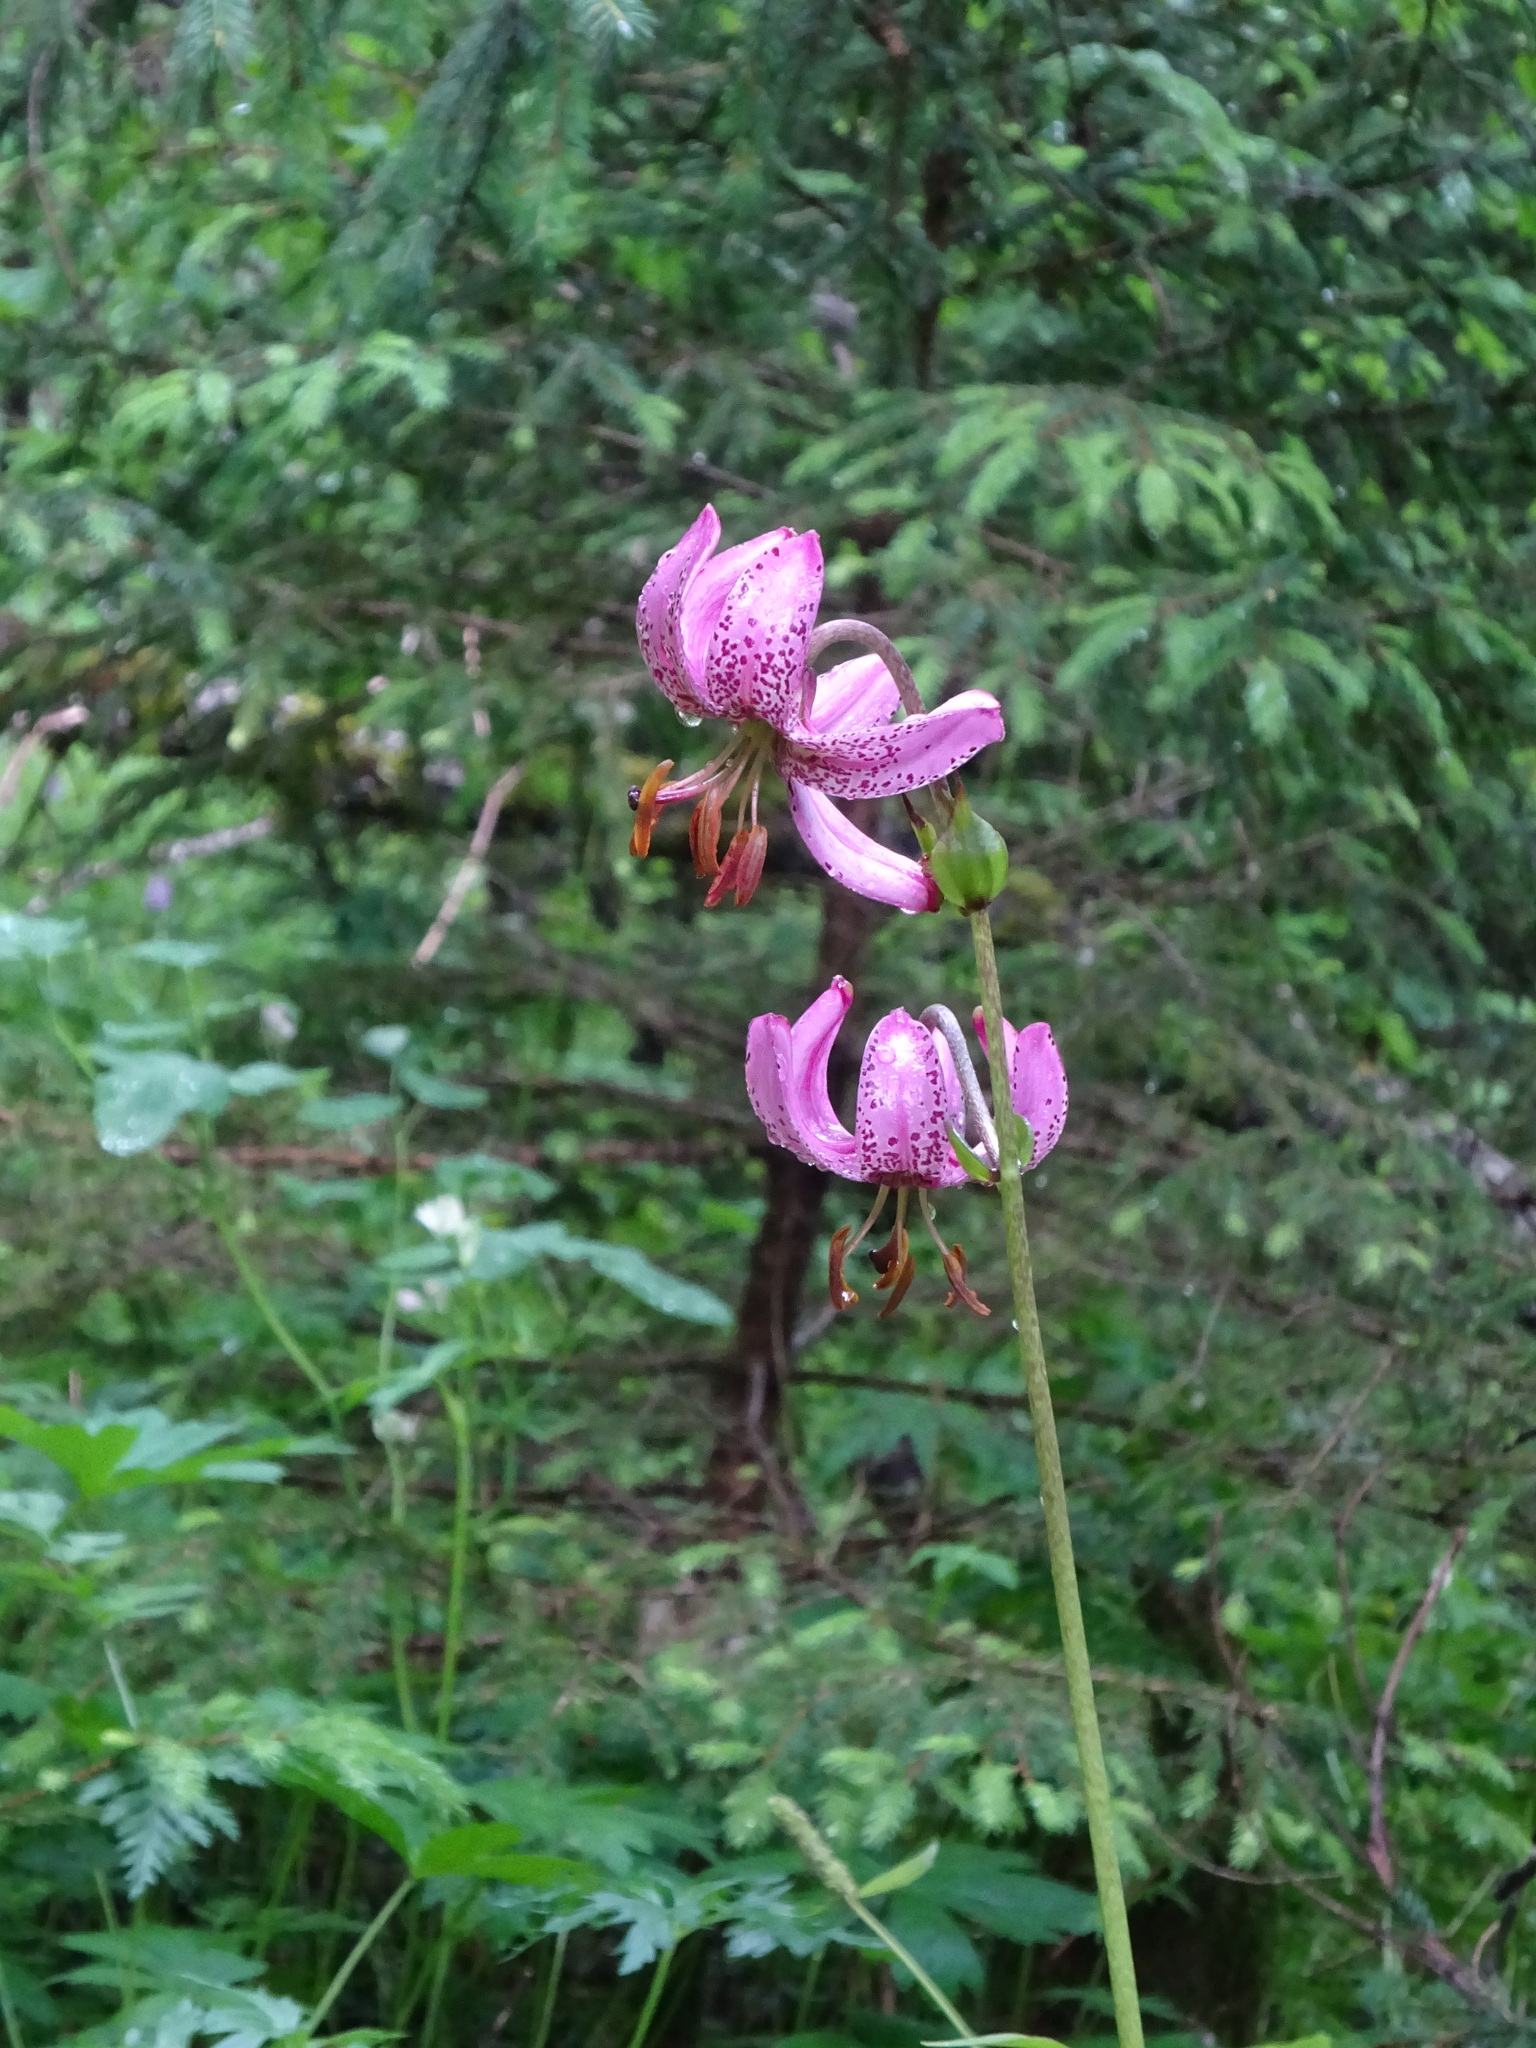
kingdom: Plantae
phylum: Tracheophyta
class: Liliopsida
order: Liliales
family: Liliaceae
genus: Lilium
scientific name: Lilium martagon
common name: Martagon lily
